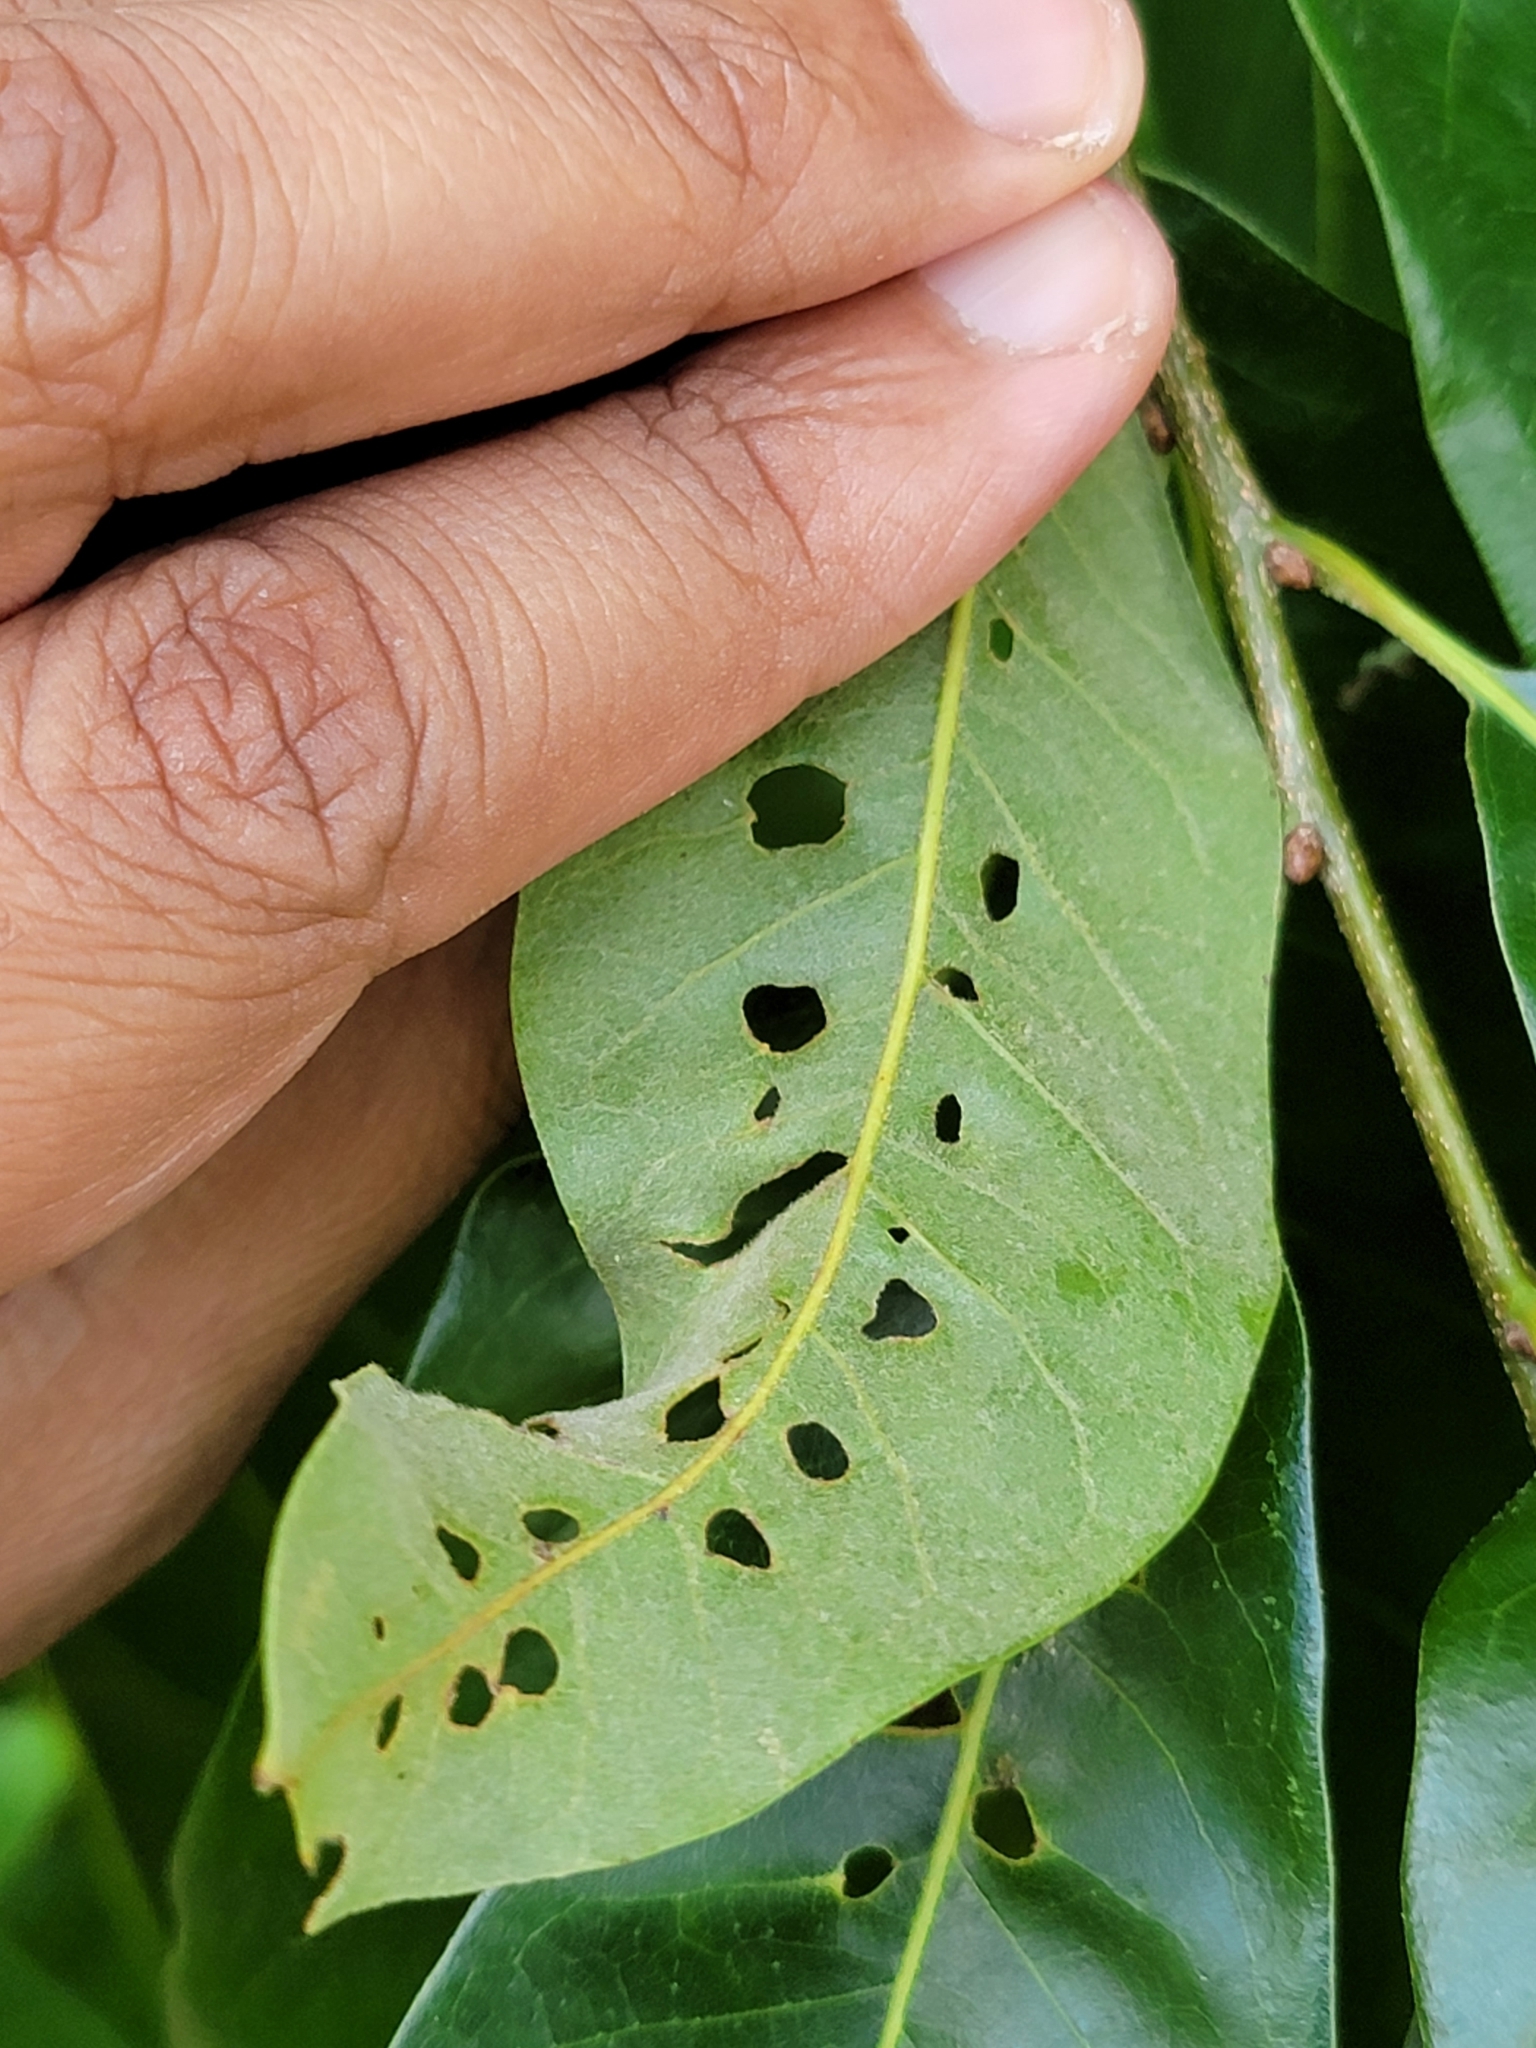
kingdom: Animalia
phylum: Arthropoda
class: Insecta
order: Diptera
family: Agromyzidae
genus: Japanagromyza
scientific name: Japanagromyza viridula
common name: Oak shothole leafminer
